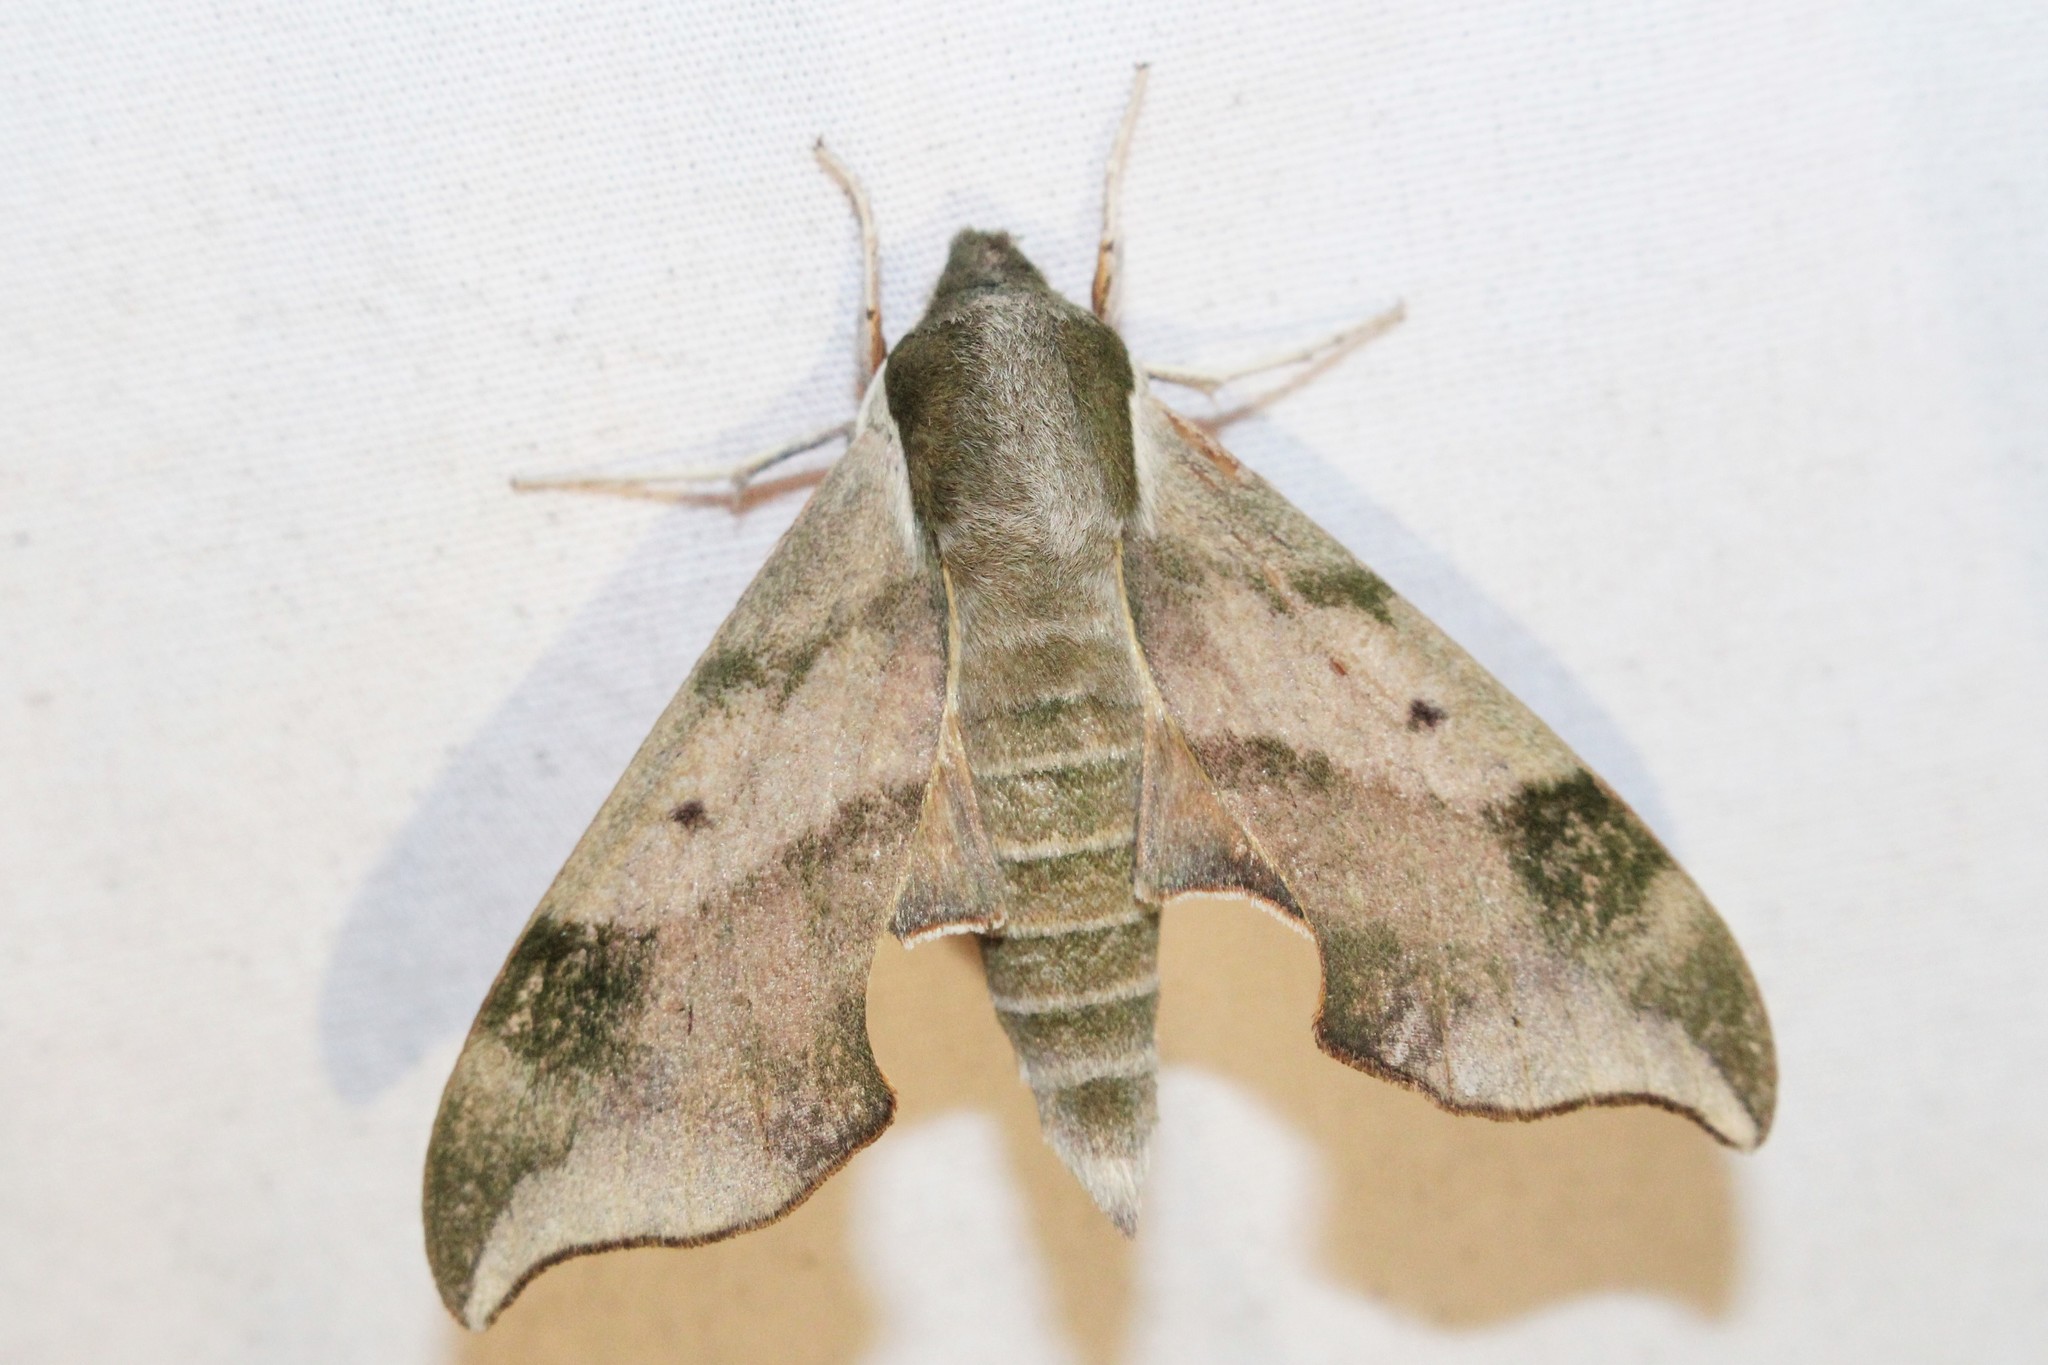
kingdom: Animalia
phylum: Arthropoda
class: Insecta
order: Lepidoptera
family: Sphingidae
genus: Darapsa
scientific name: Darapsa myron
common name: Hog sphinx
